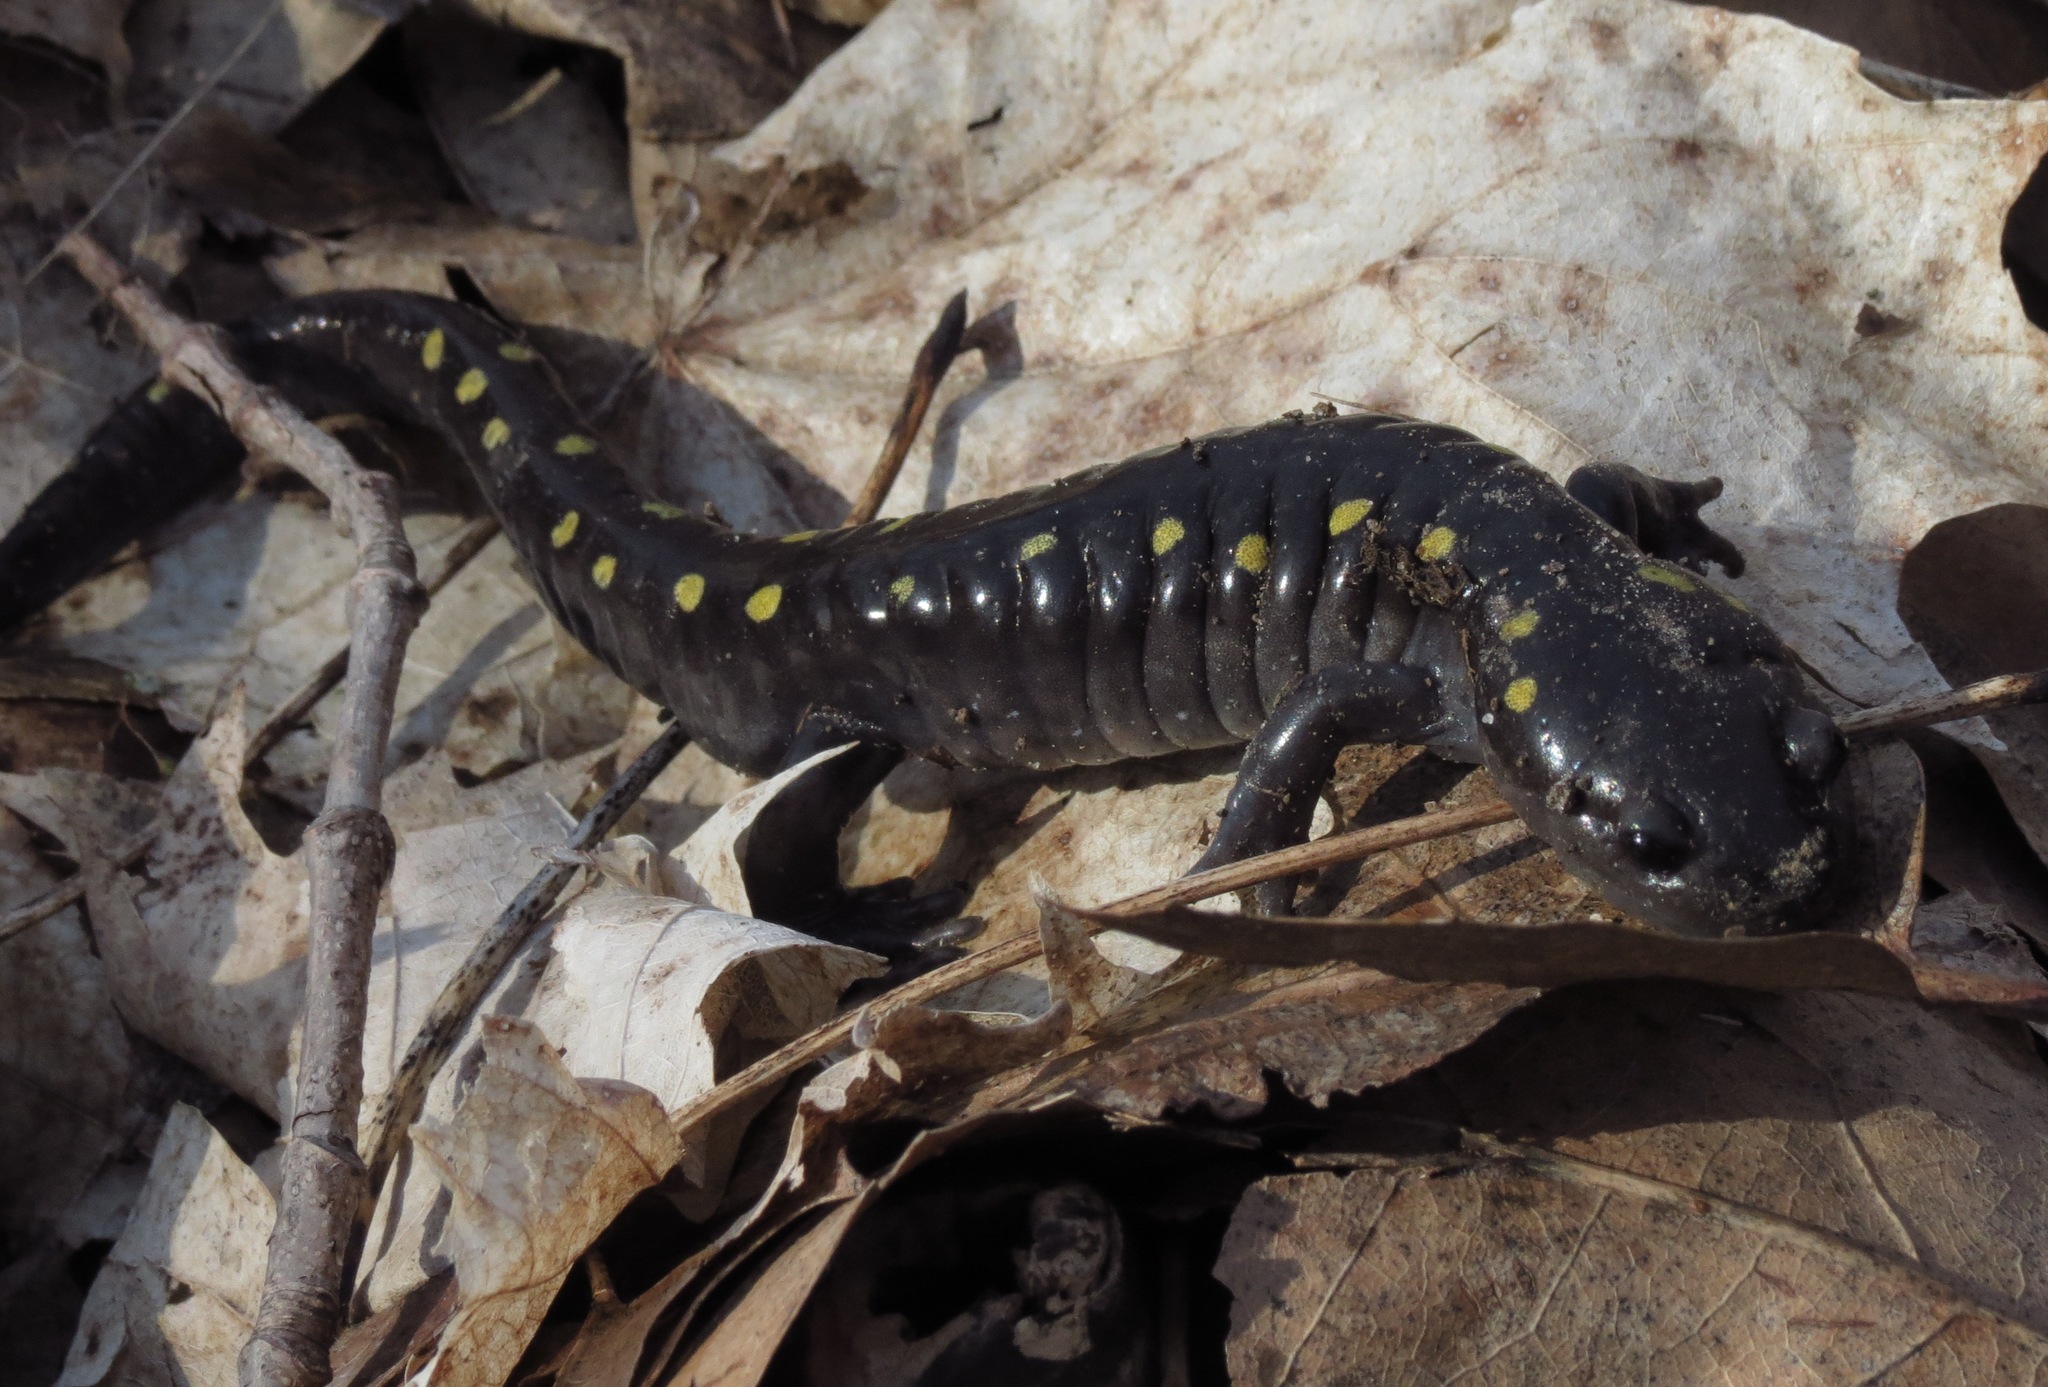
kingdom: Animalia
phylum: Chordata
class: Amphibia
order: Caudata
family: Ambystomatidae
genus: Ambystoma
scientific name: Ambystoma maculatum
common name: Spotted salamander
